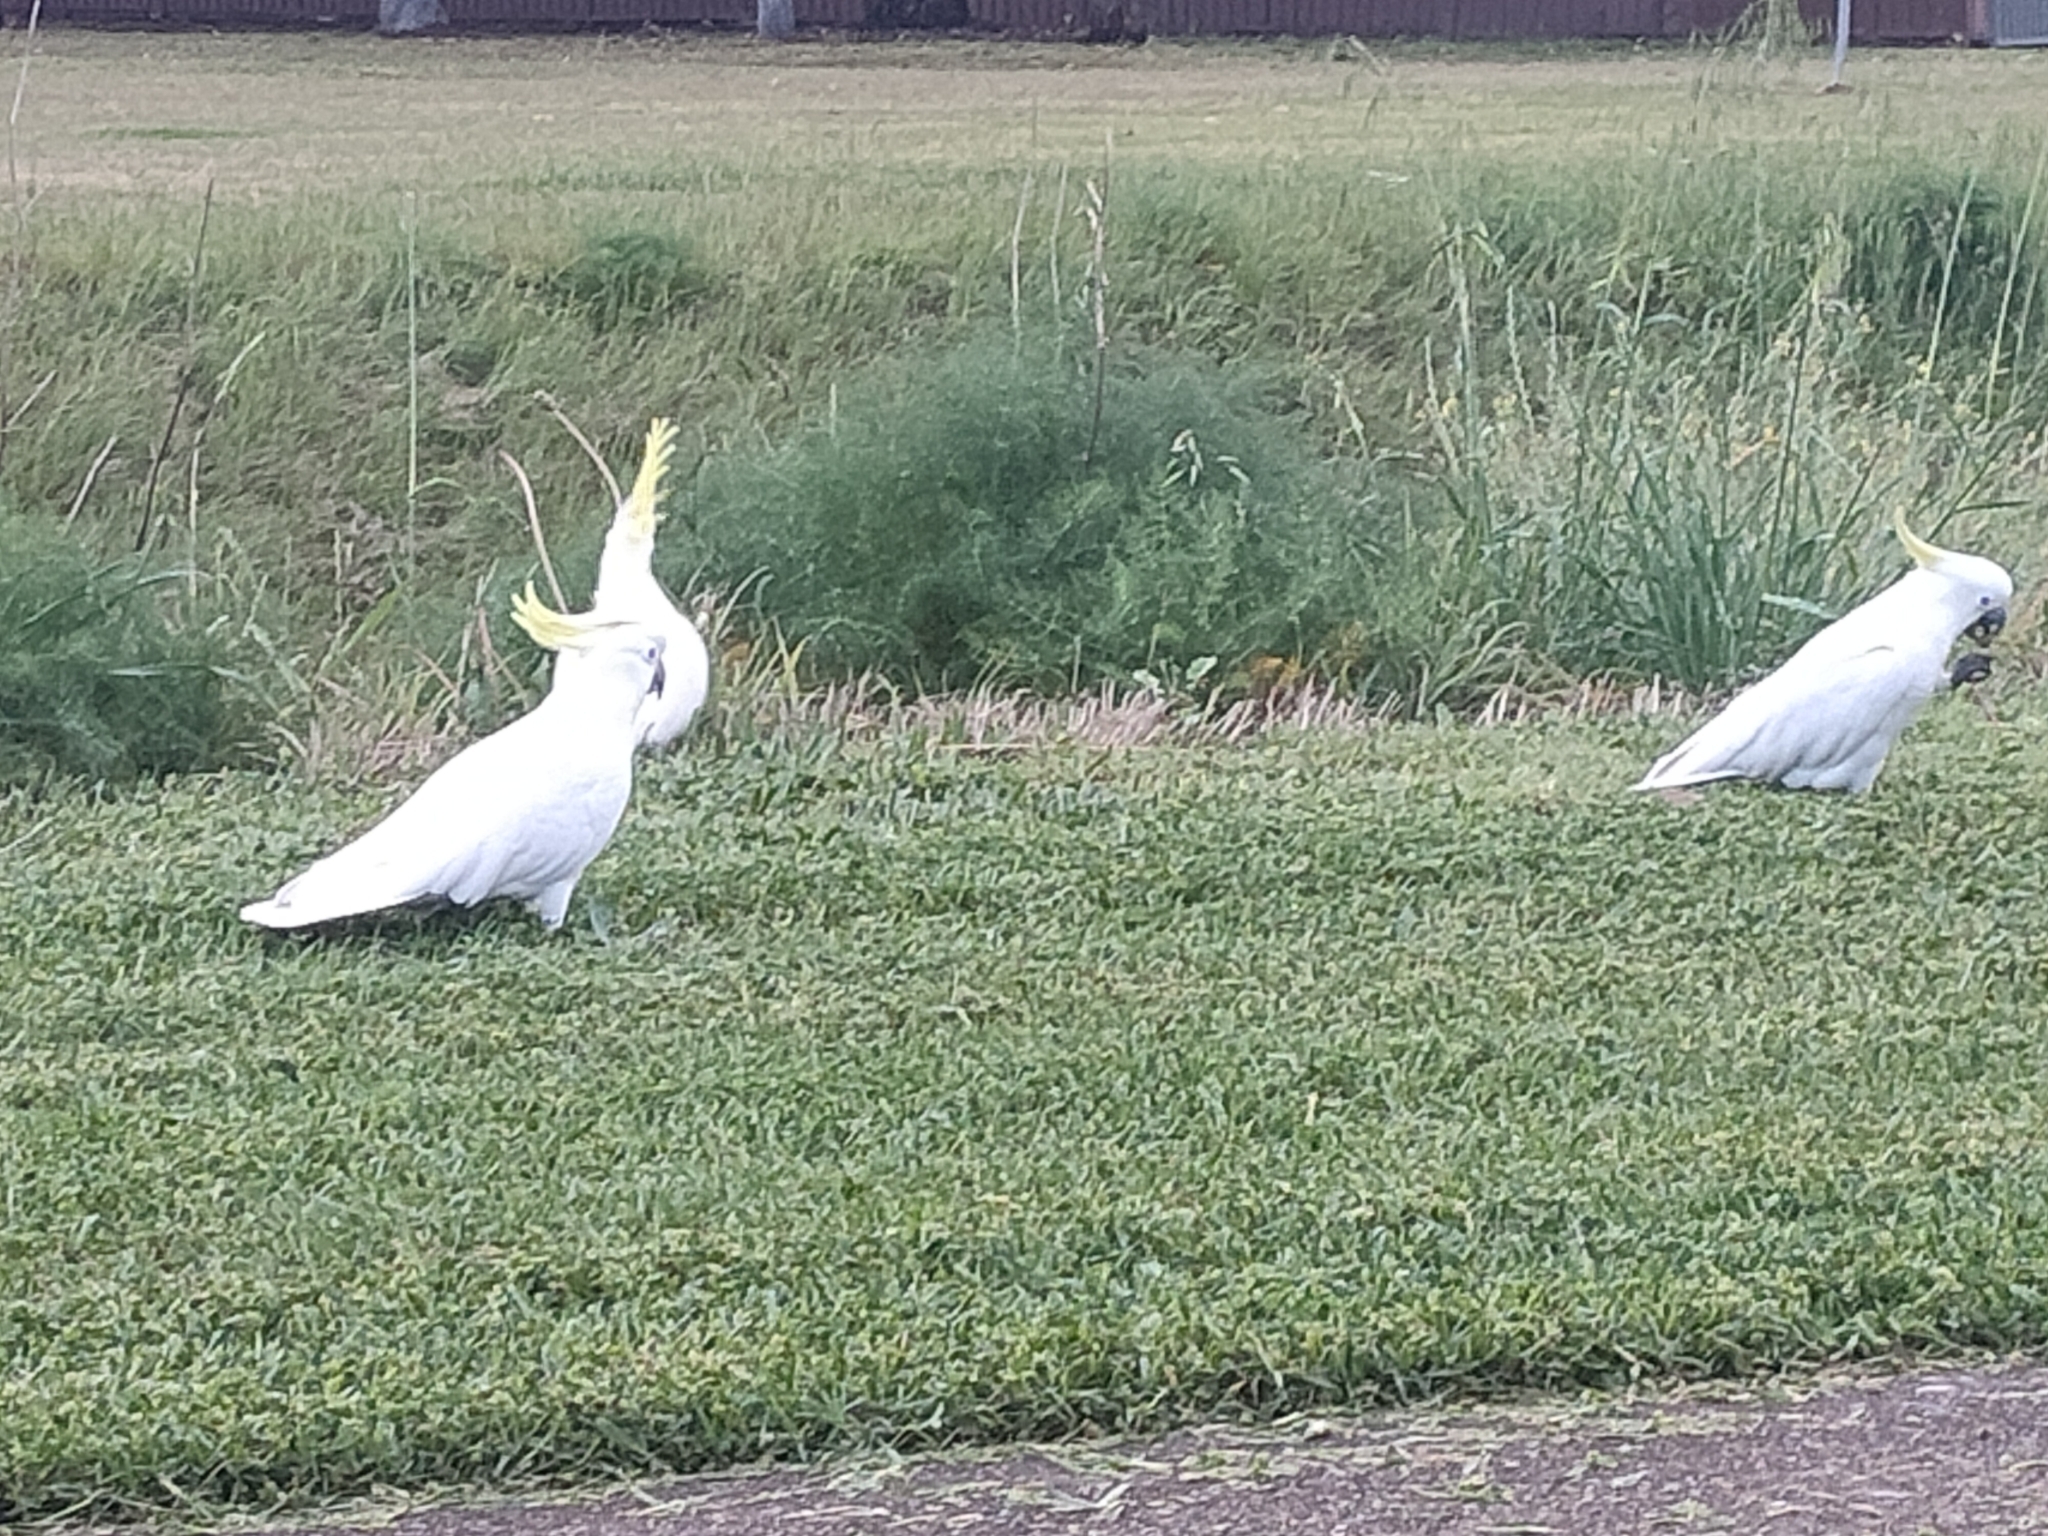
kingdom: Animalia
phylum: Chordata
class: Aves
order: Psittaciformes
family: Psittacidae
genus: Cacatua
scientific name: Cacatua galerita
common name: Sulphur-crested cockatoo
